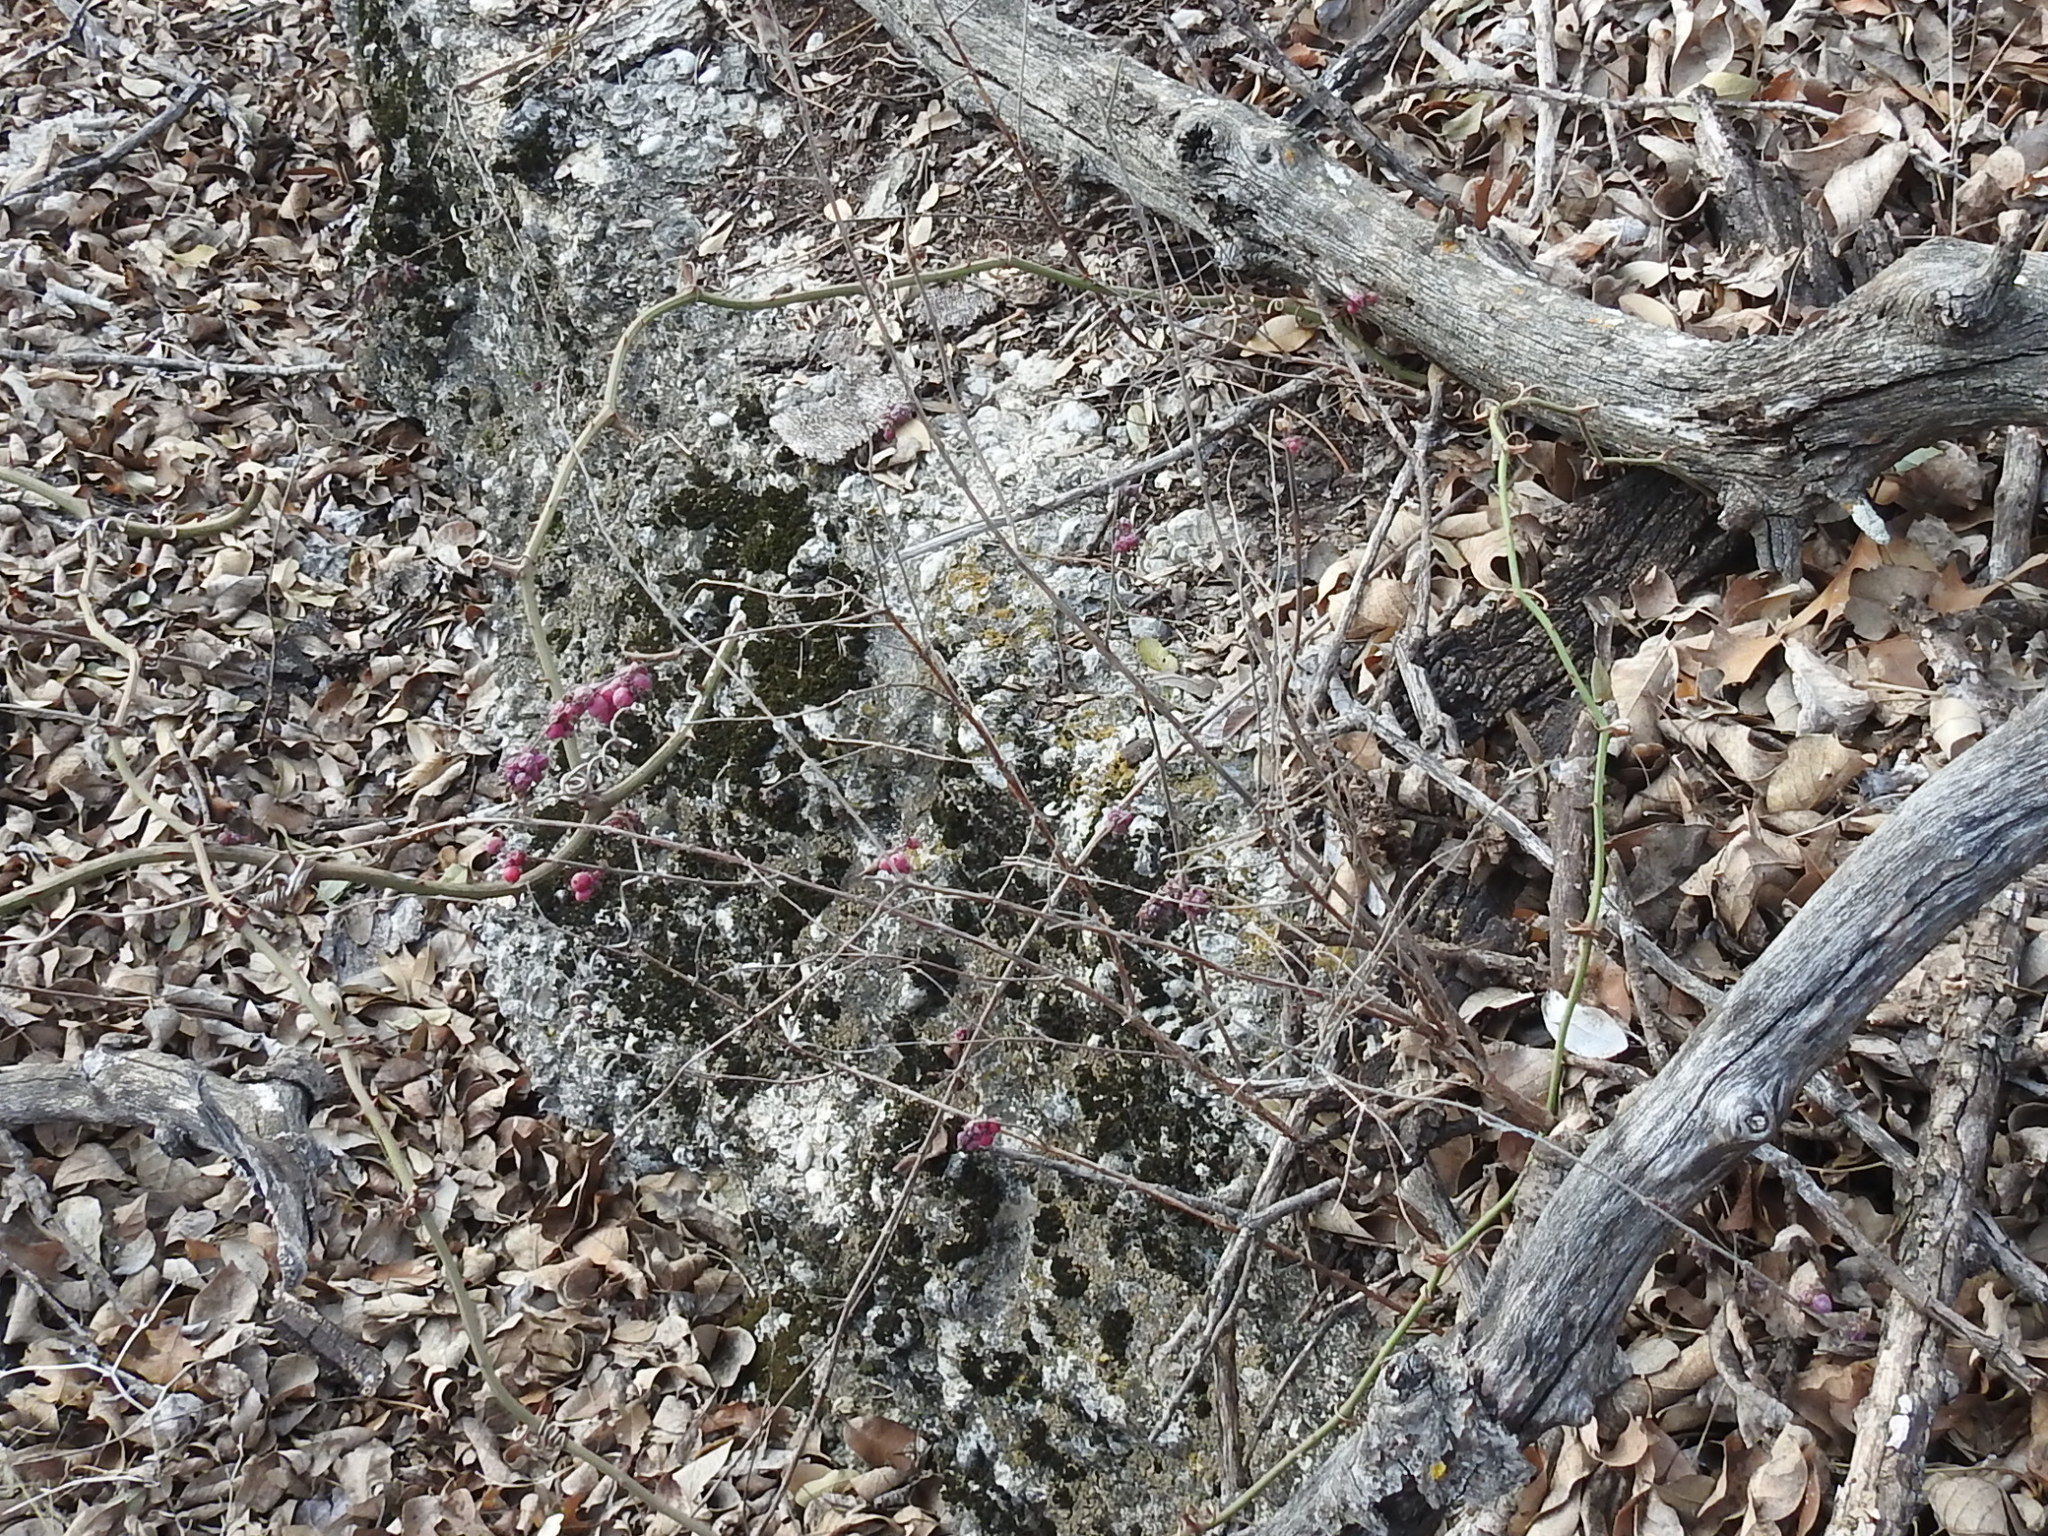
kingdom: Plantae
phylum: Tracheophyta
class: Magnoliopsida
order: Dipsacales
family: Caprifoliaceae
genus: Symphoricarpos
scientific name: Symphoricarpos orbiculatus
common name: Coralberry
